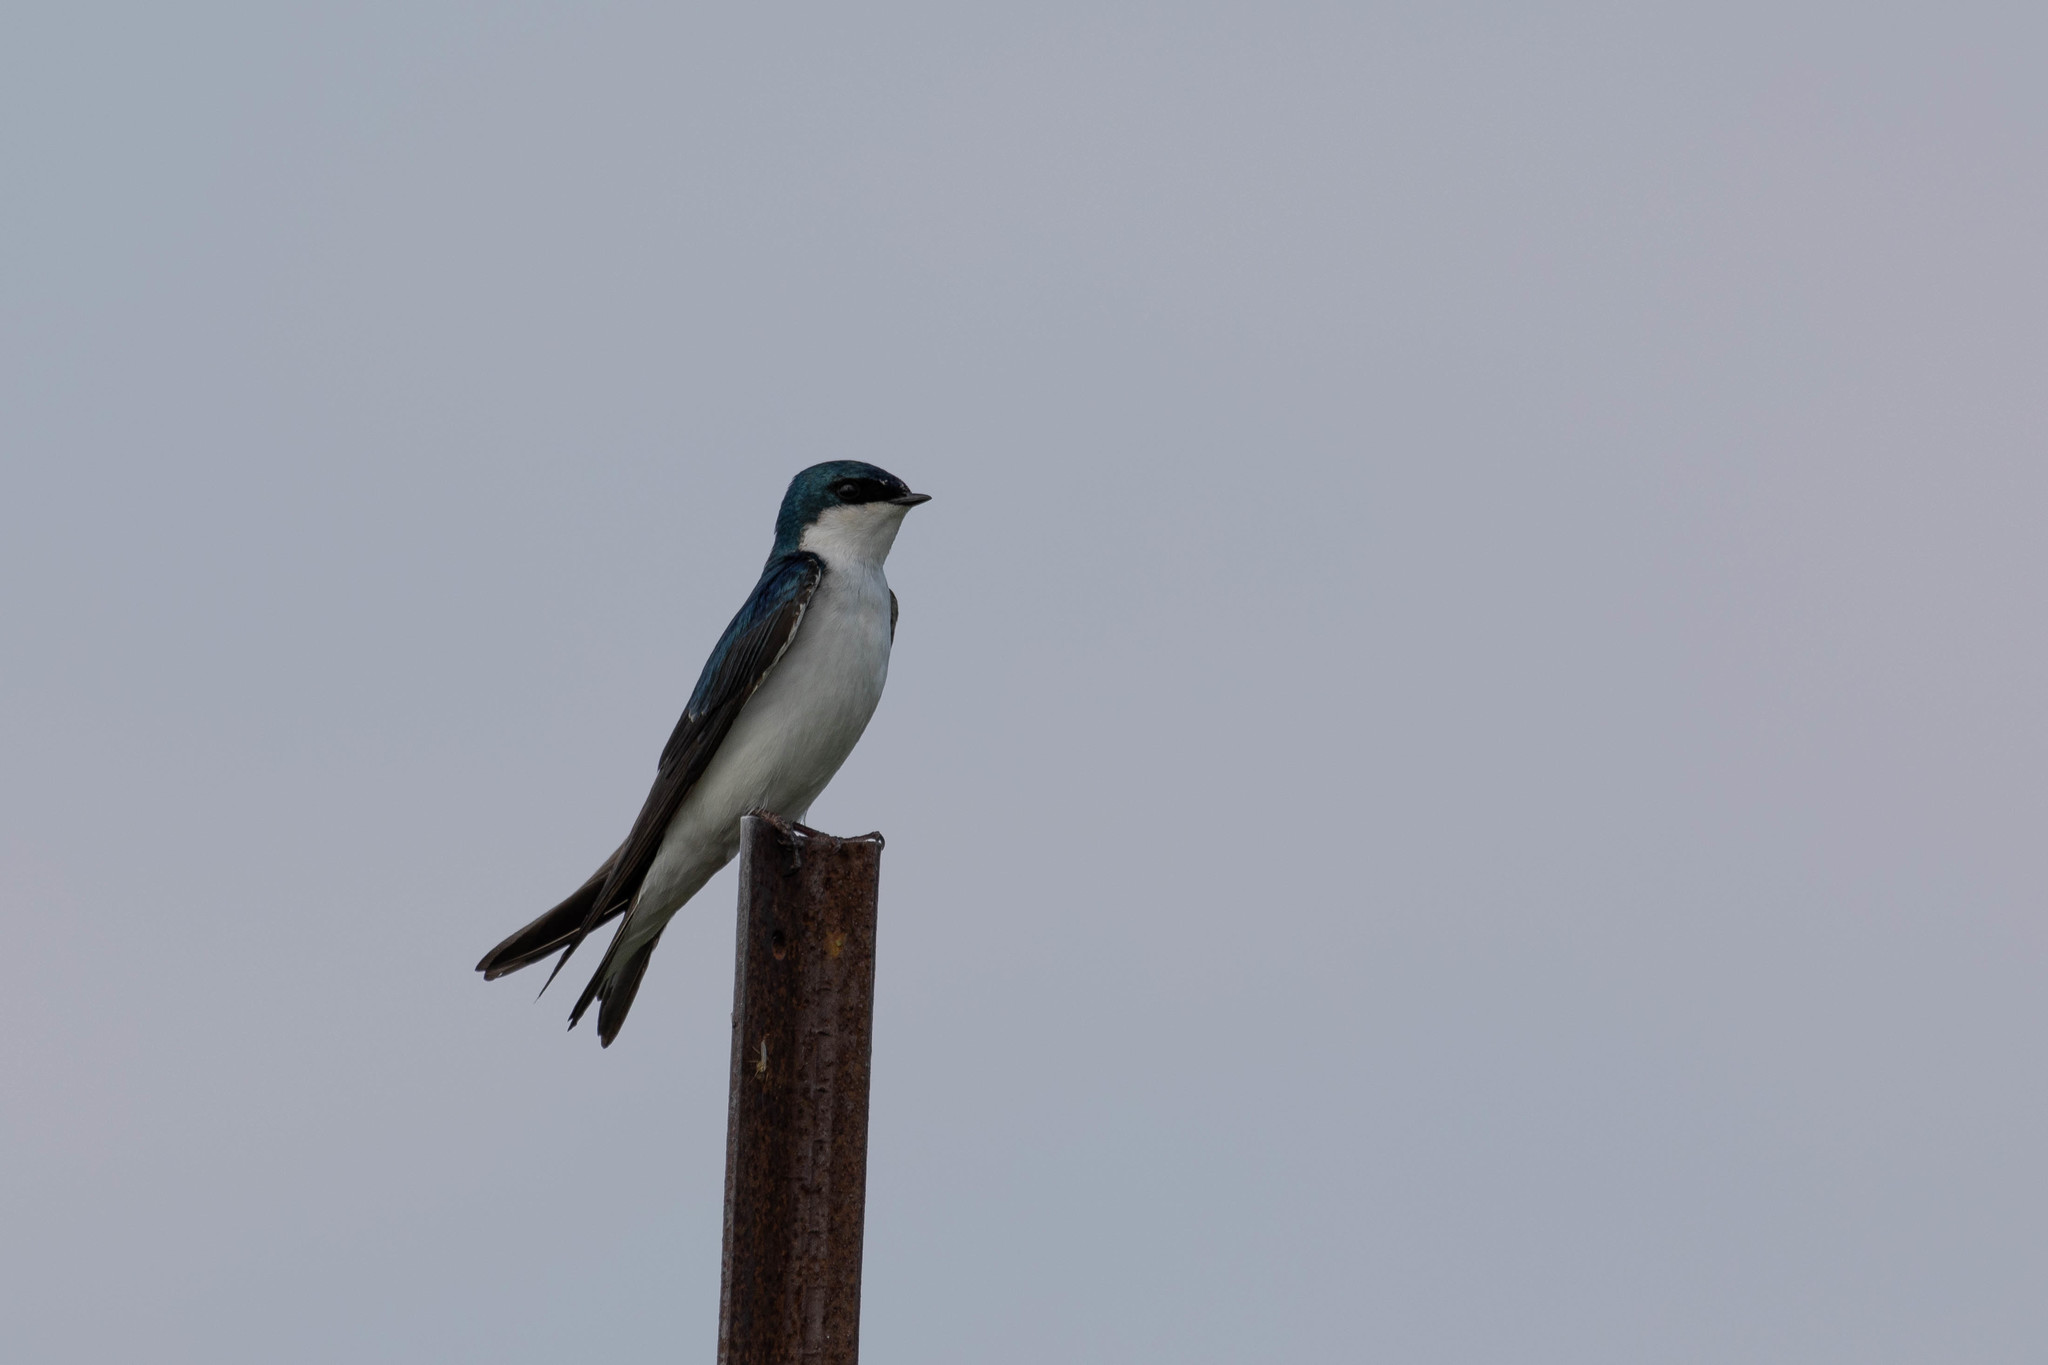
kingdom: Animalia
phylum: Chordata
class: Aves
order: Passeriformes
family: Hirundinidae
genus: Tachycineta
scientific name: Tachycineta bicolor
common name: Tree swallow
